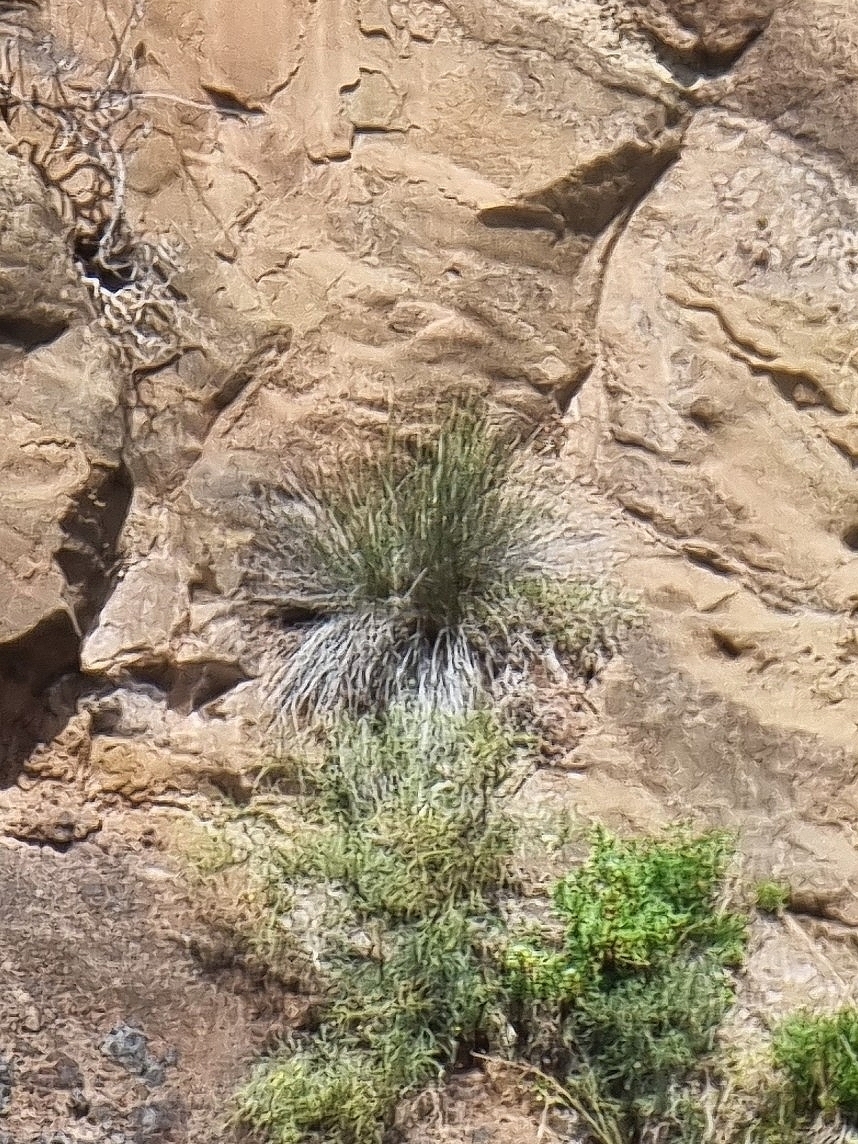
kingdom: Plantae
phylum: Tracheophyta
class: Liliopsida
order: Poales
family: Juncaceae
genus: Juncus
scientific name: Juncus acutus
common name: Sharp rush
